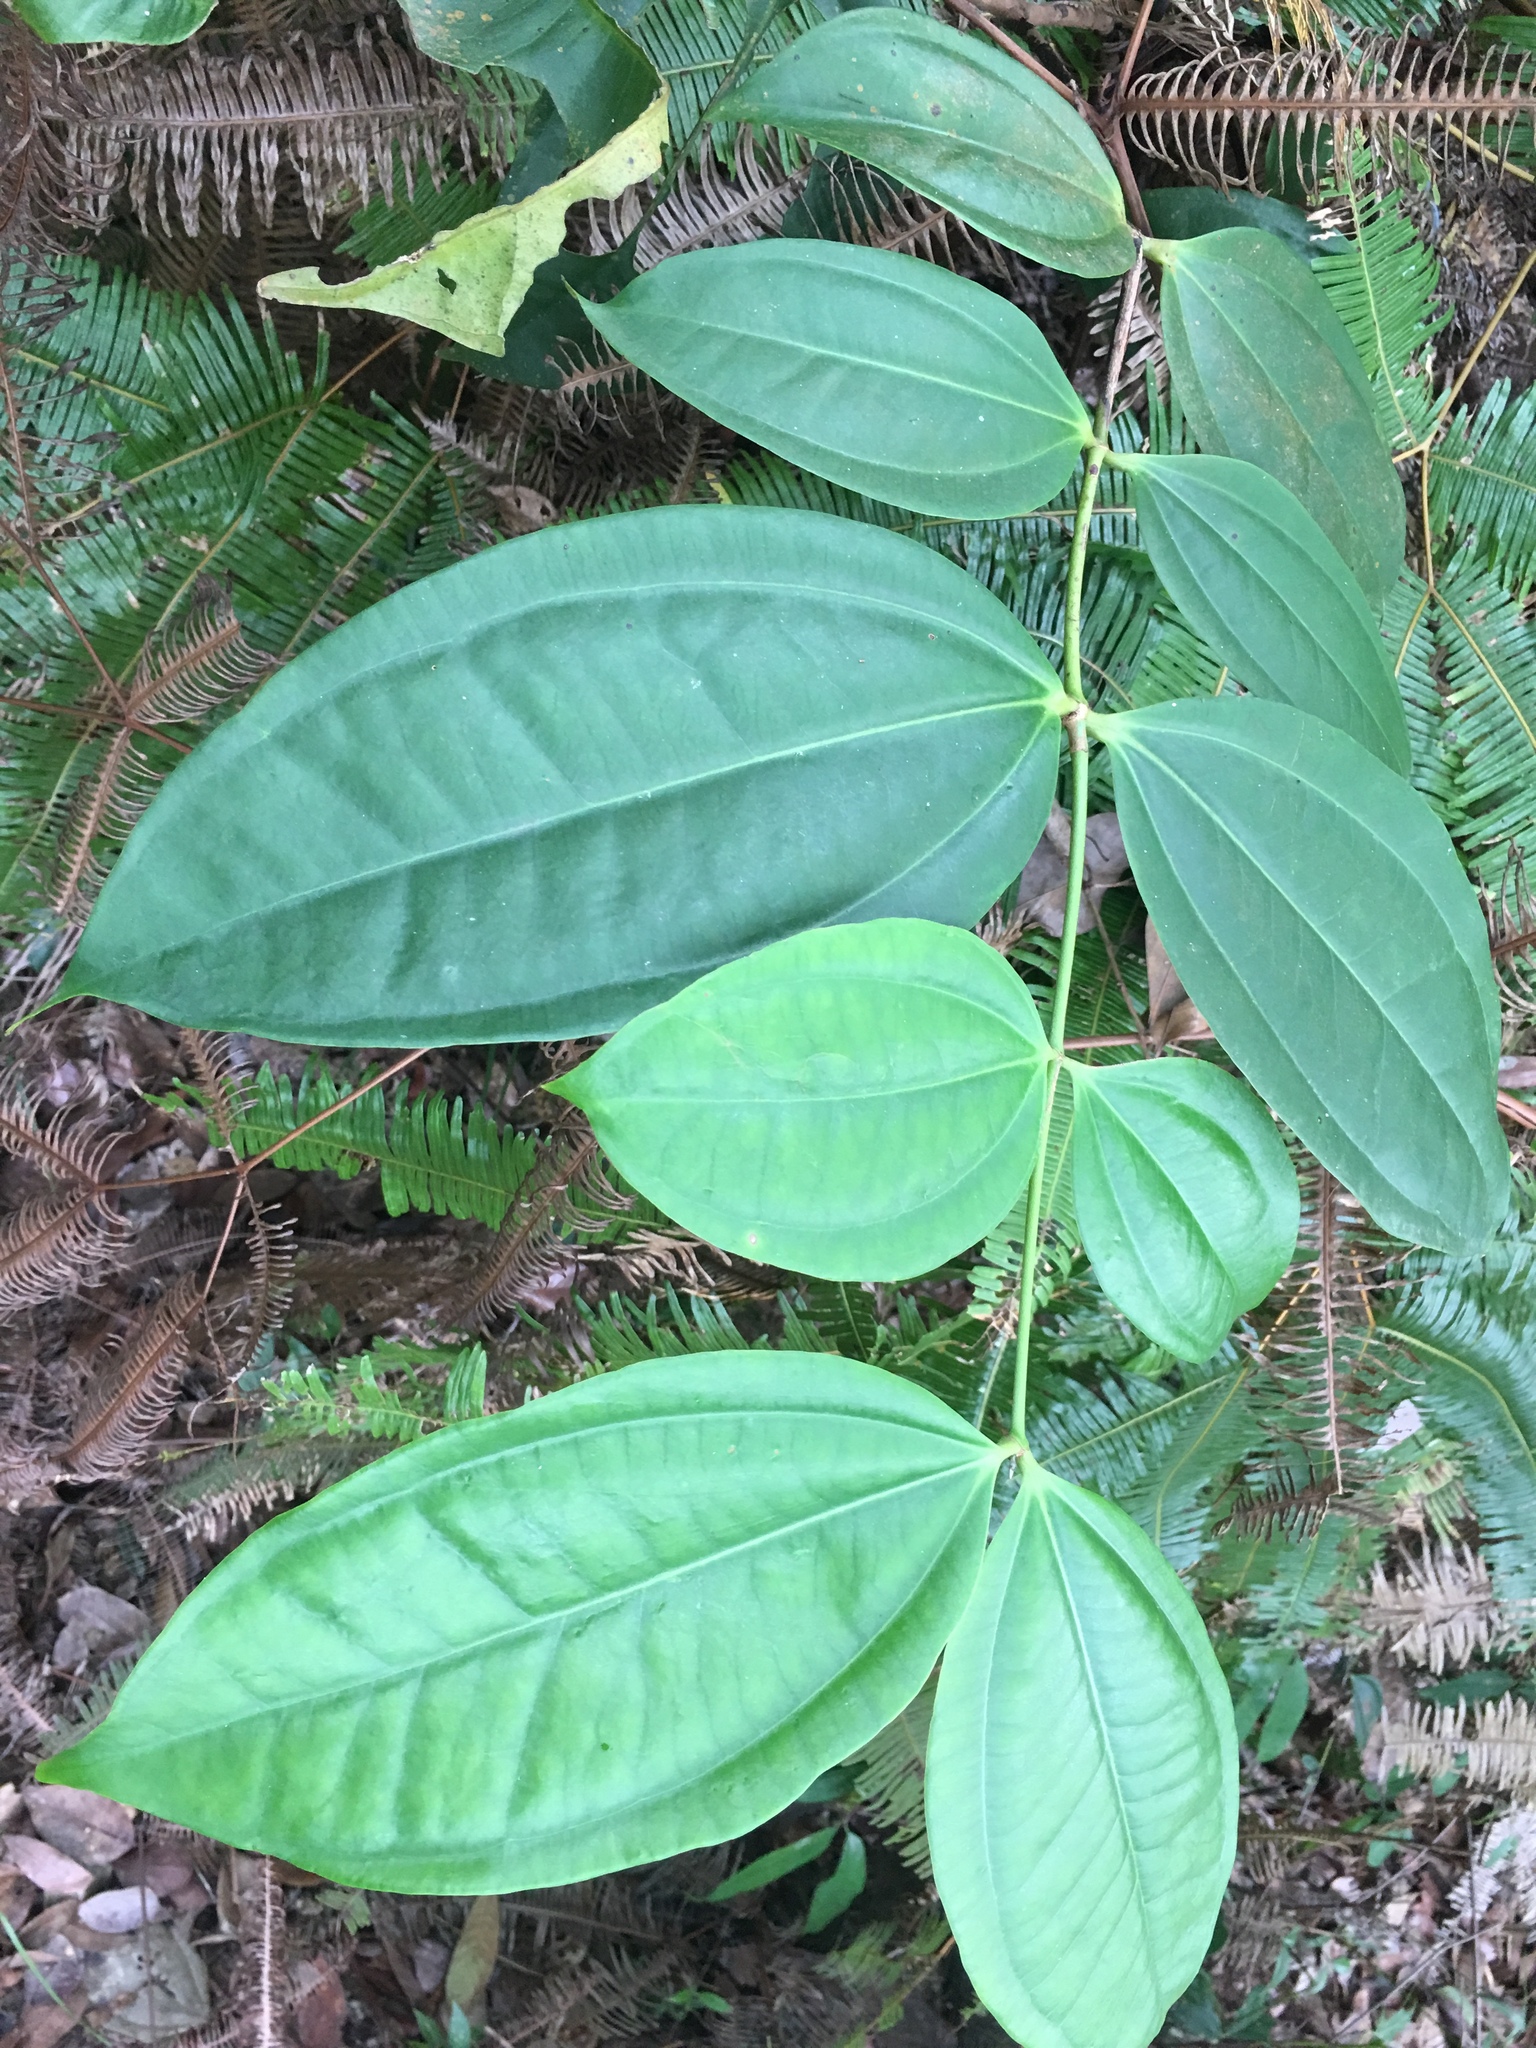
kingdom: Plantae
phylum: Tracheophyta
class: Magnoliopsida
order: Gentianales
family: Loganiaceae
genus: Strychnos
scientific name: Strychnos ignatii
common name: Ignatius-bean
